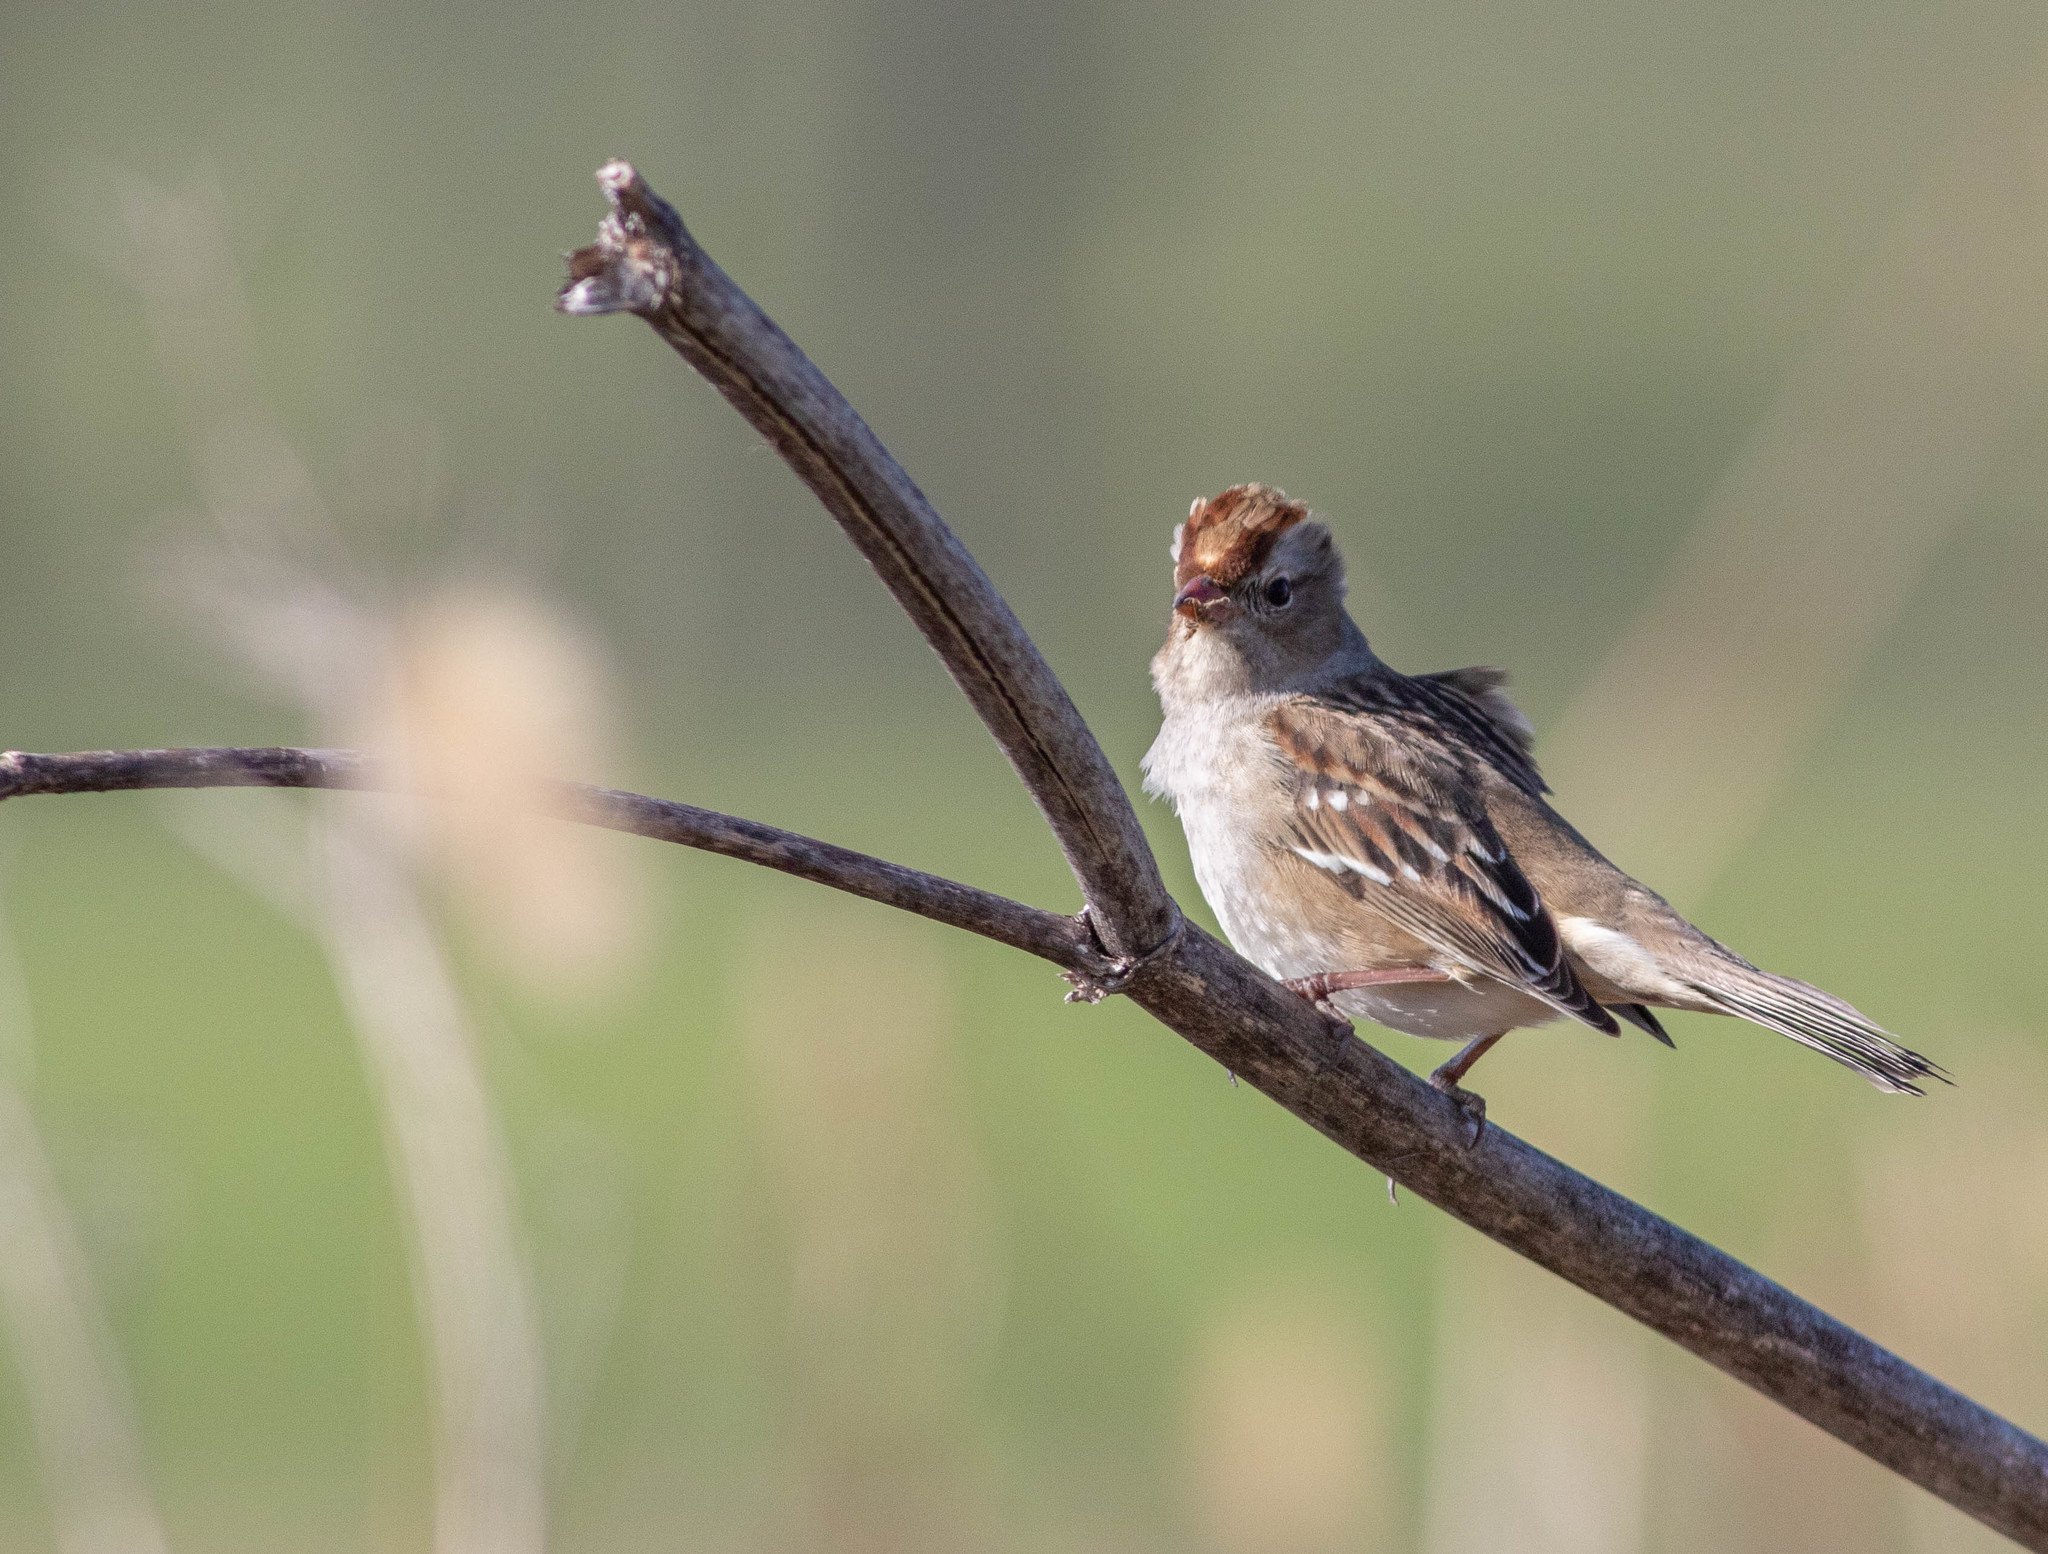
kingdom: Animalia
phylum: Chordata
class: Aves
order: Passeriformes
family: Passerellidae
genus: Zonotrichia
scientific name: Zonotrichia leucophrys
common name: White-crowned sparrow
